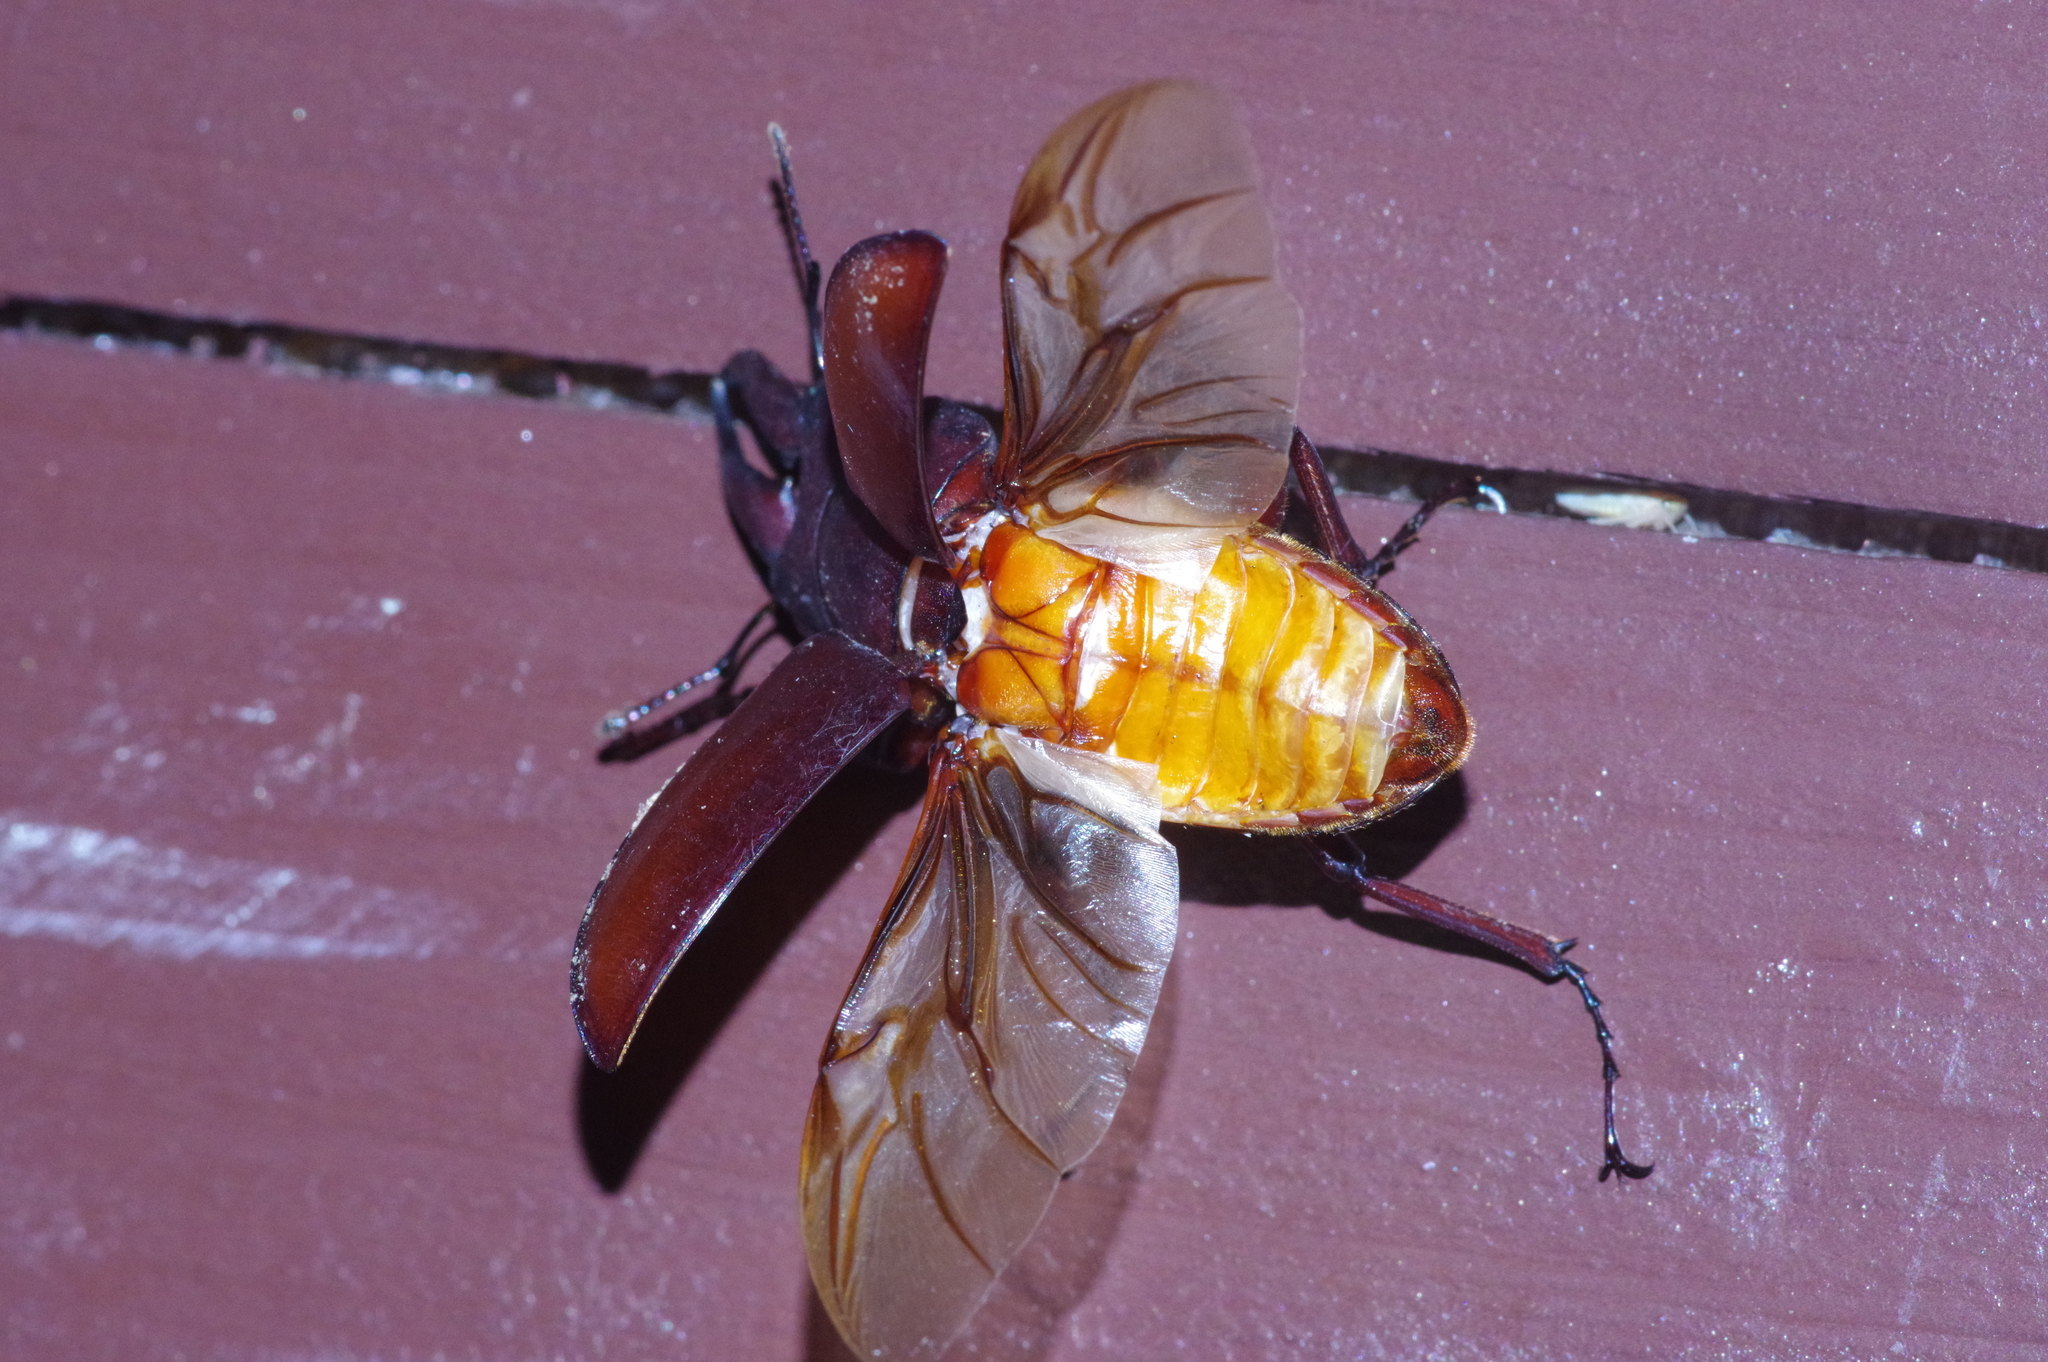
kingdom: Animalia
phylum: Arthropoda
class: Insecta
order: Coleoptera
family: Lucanidae
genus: Prosopocoilus
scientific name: Prosopocoilus dissimilis
